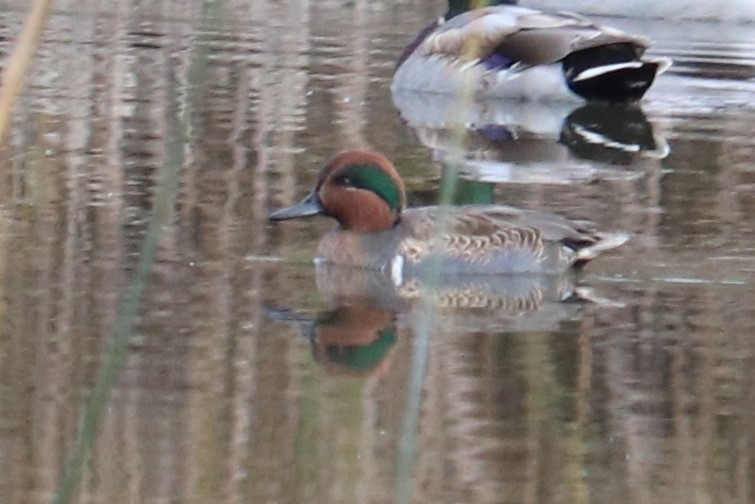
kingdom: Animalia
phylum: Chordata
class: Aves
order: Anseriformes
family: Anatidae
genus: Anas
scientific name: Anas crecca
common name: Eurasian teal
